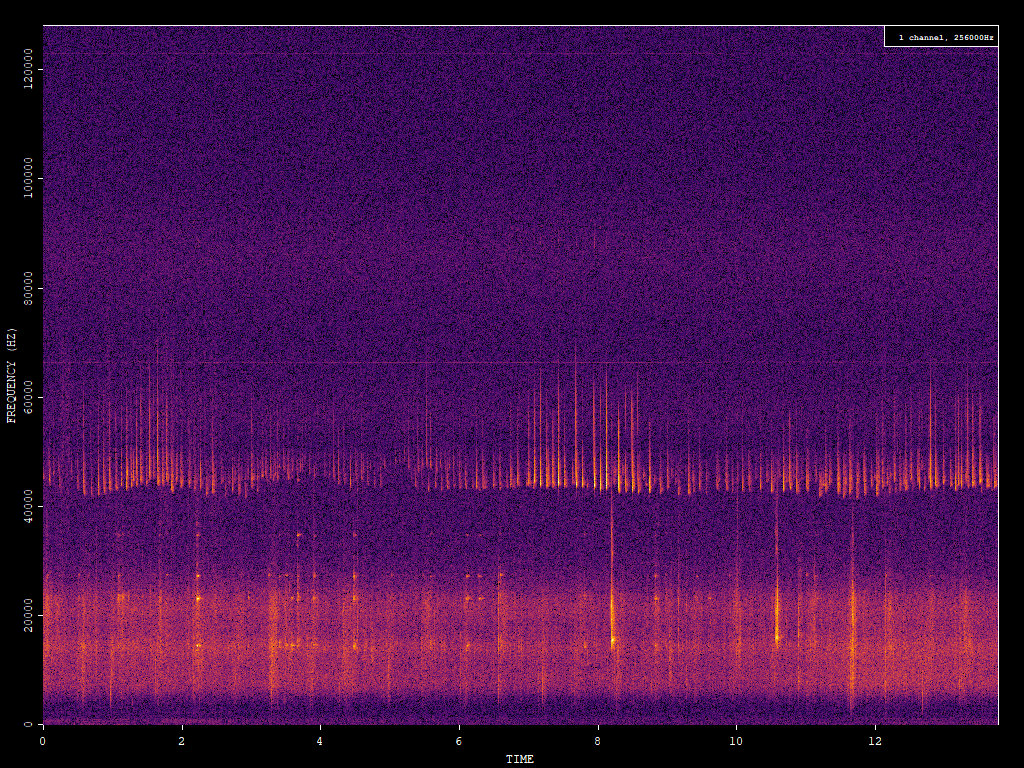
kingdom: Animalia
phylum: Chordata
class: Mammalia
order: Chiroptera
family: Vespertilionidae
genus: Pipistrellus
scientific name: Pipistrellus pipistrellus
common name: Common pipistrelle
